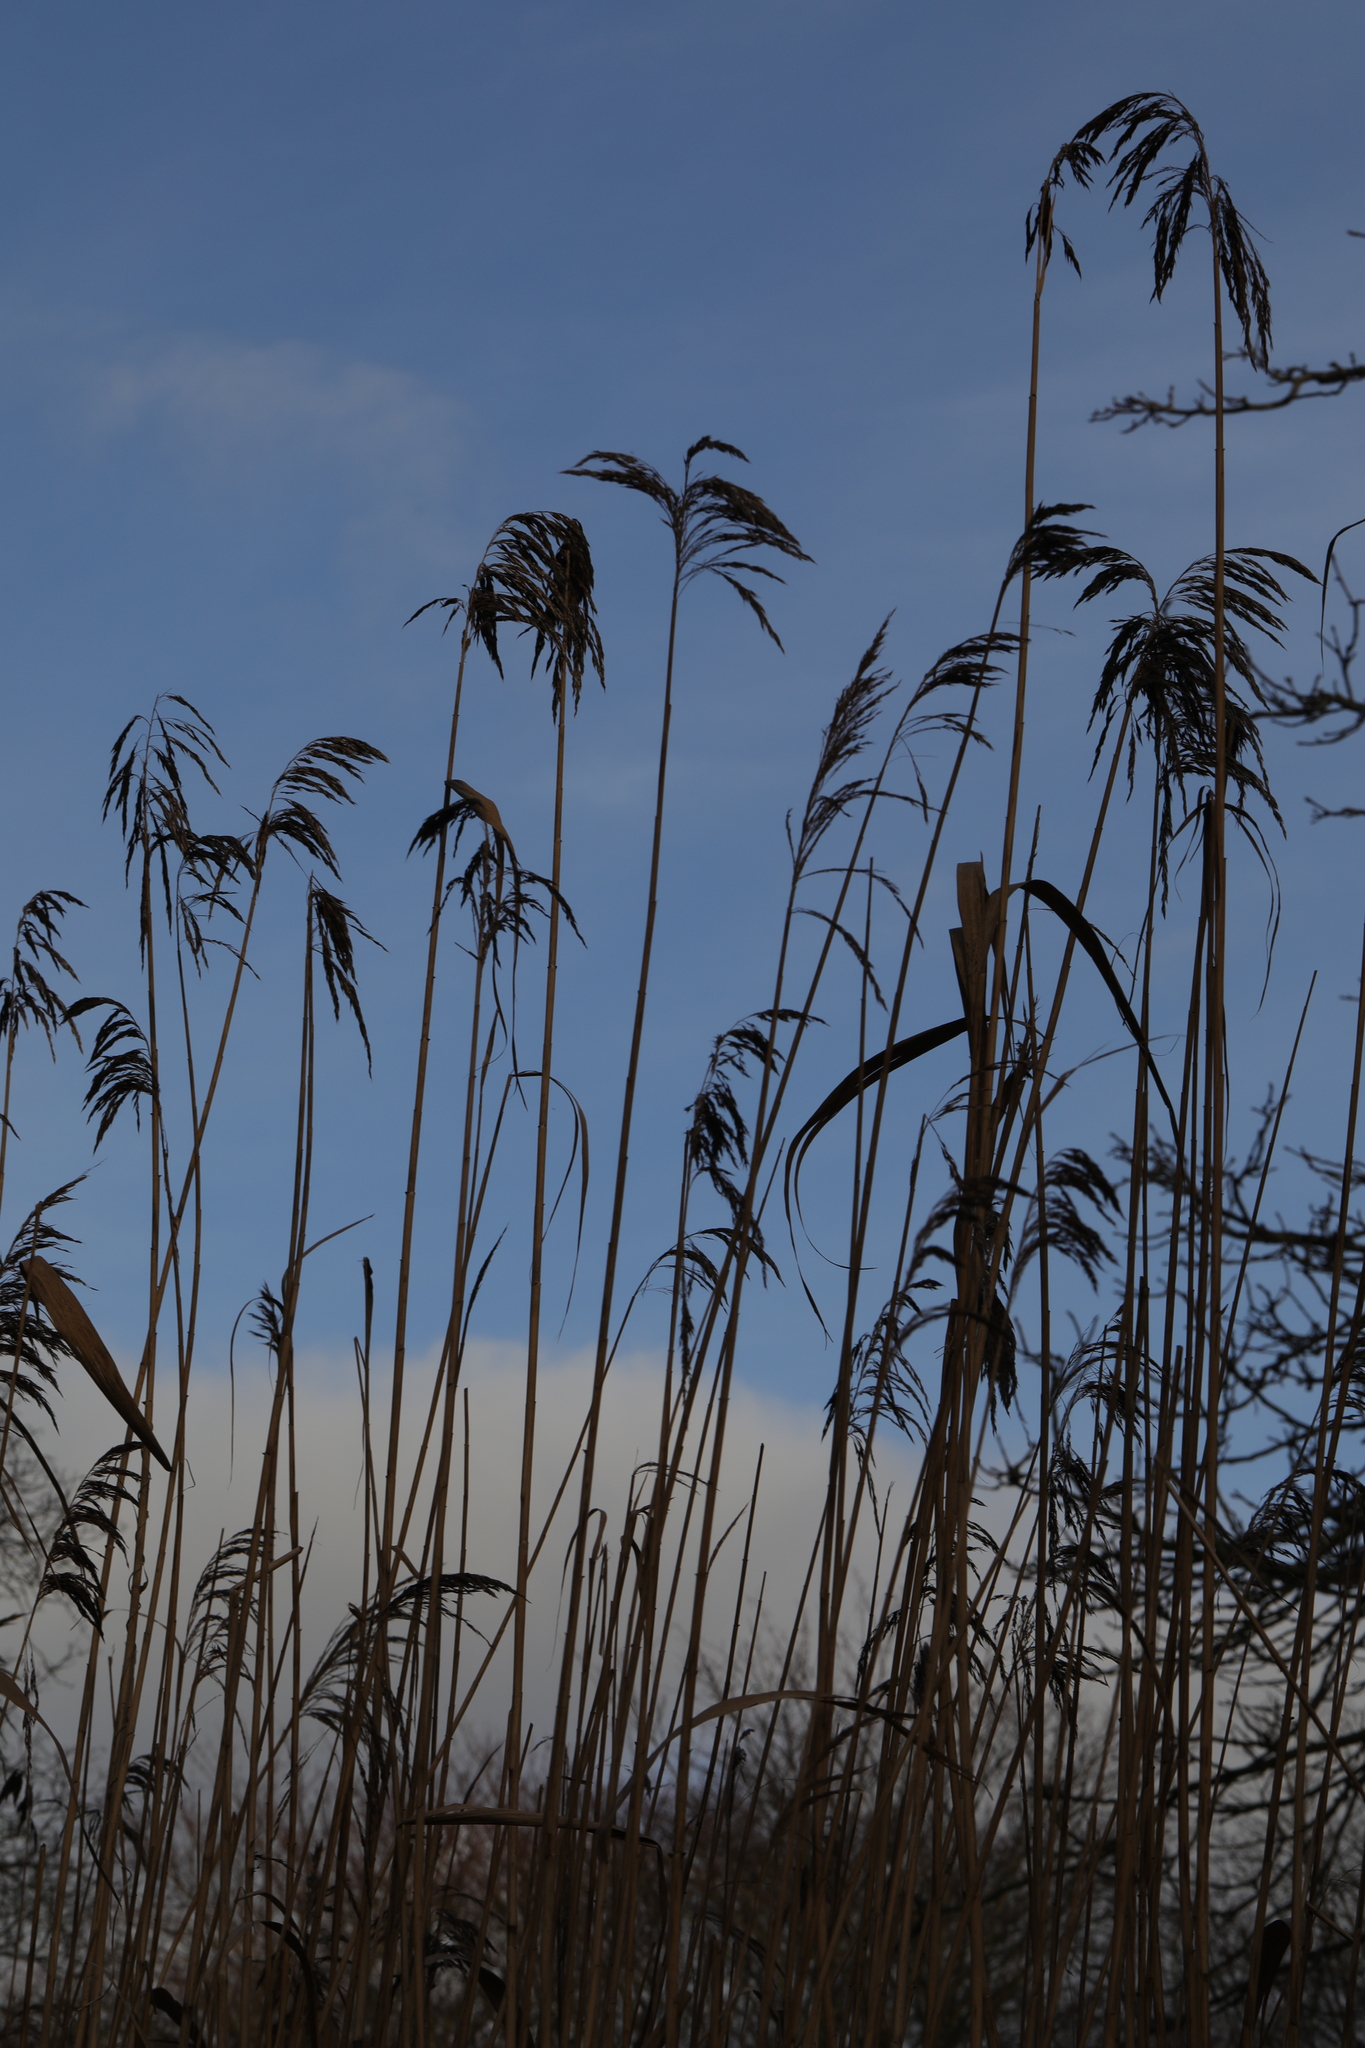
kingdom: Plantae
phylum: Tracheophyta
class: Liliopsida
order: Poales
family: Poaceae
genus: Phragmites
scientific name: Phragmites australis
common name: Common reed
